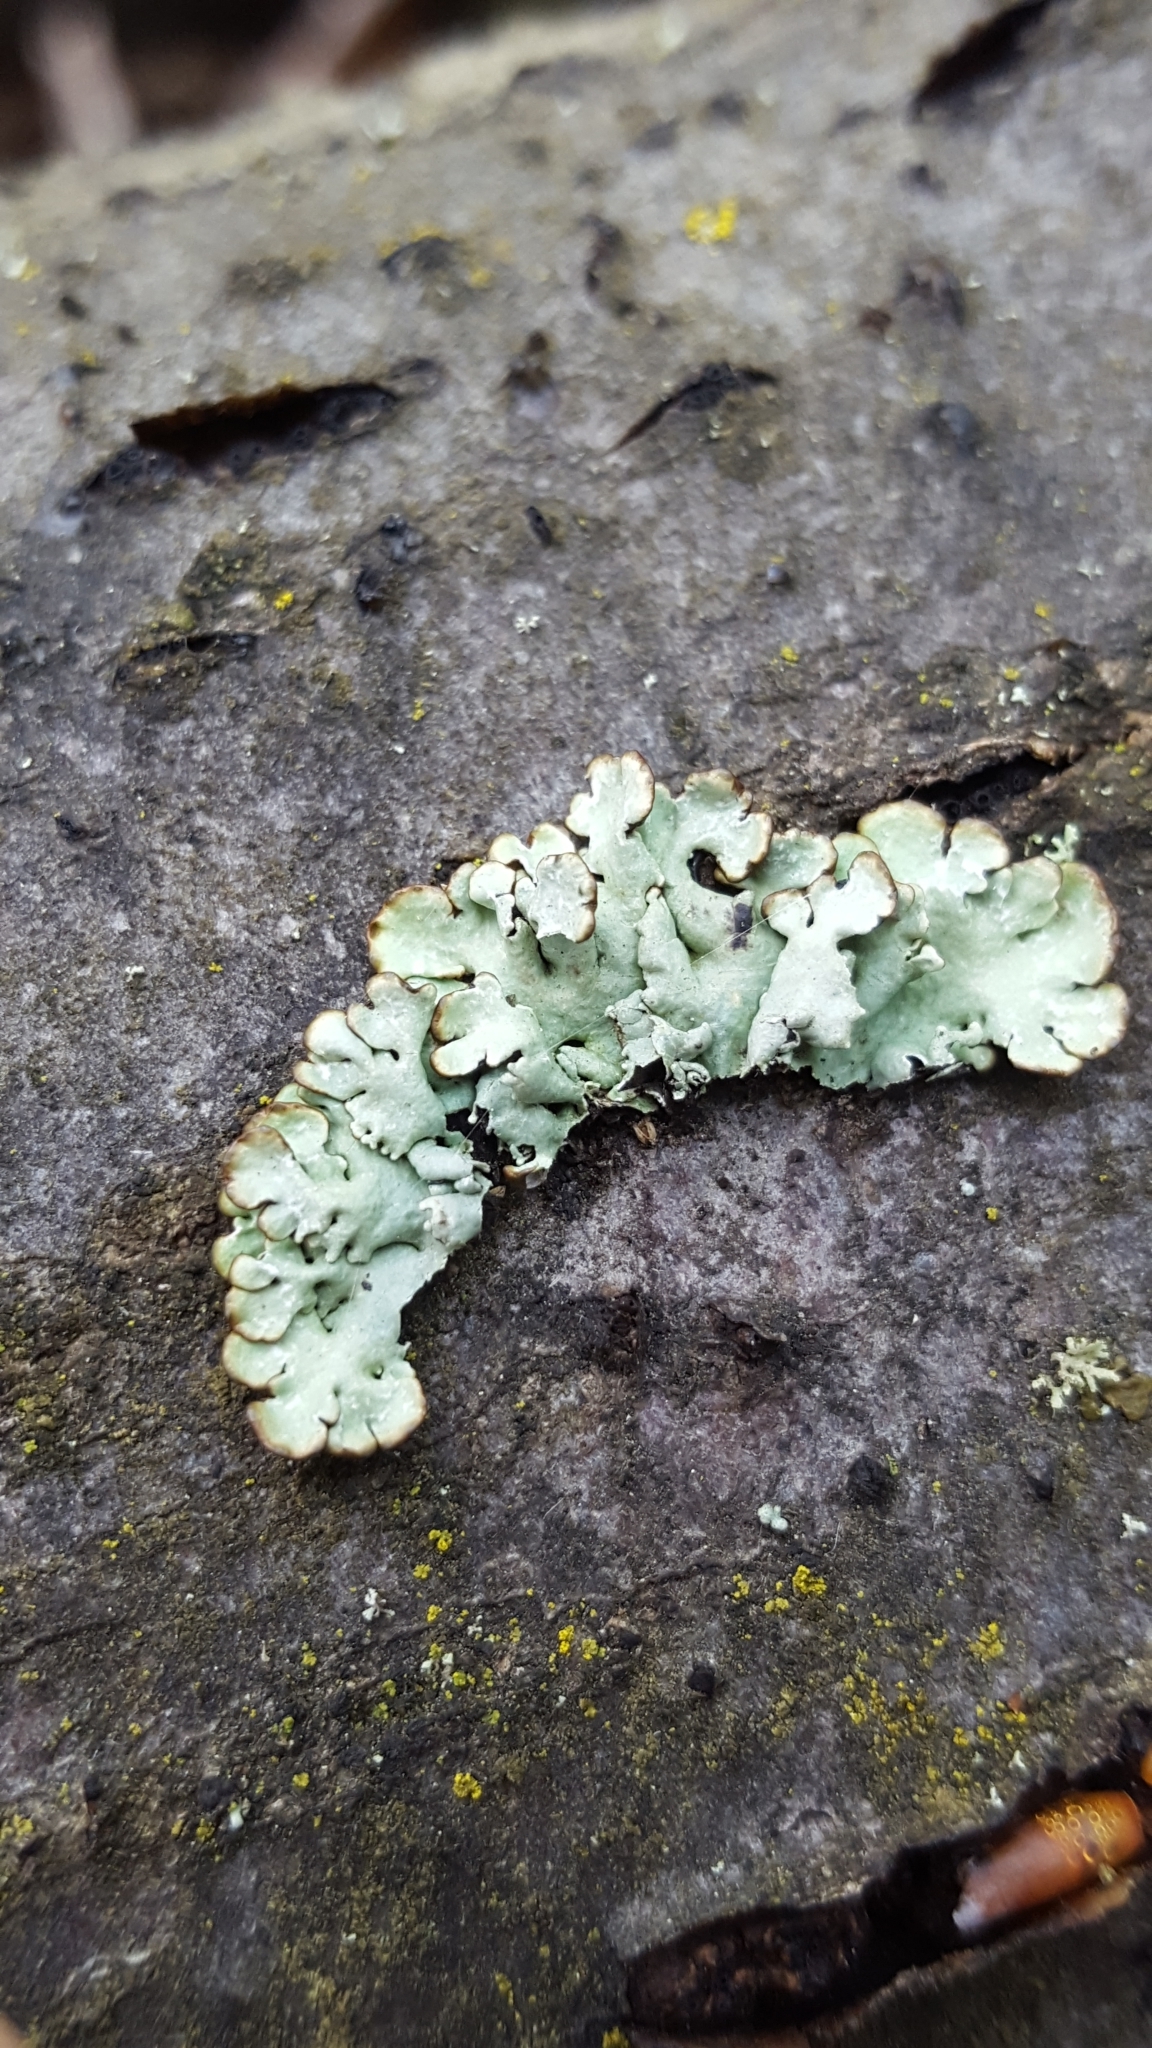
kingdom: Fungi
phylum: Ascomycota
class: Lecanoromycetes
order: Lecanorales
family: Parmeliaceae
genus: Hypogymnia
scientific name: Hypogymnia physodes
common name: Dark crottle
